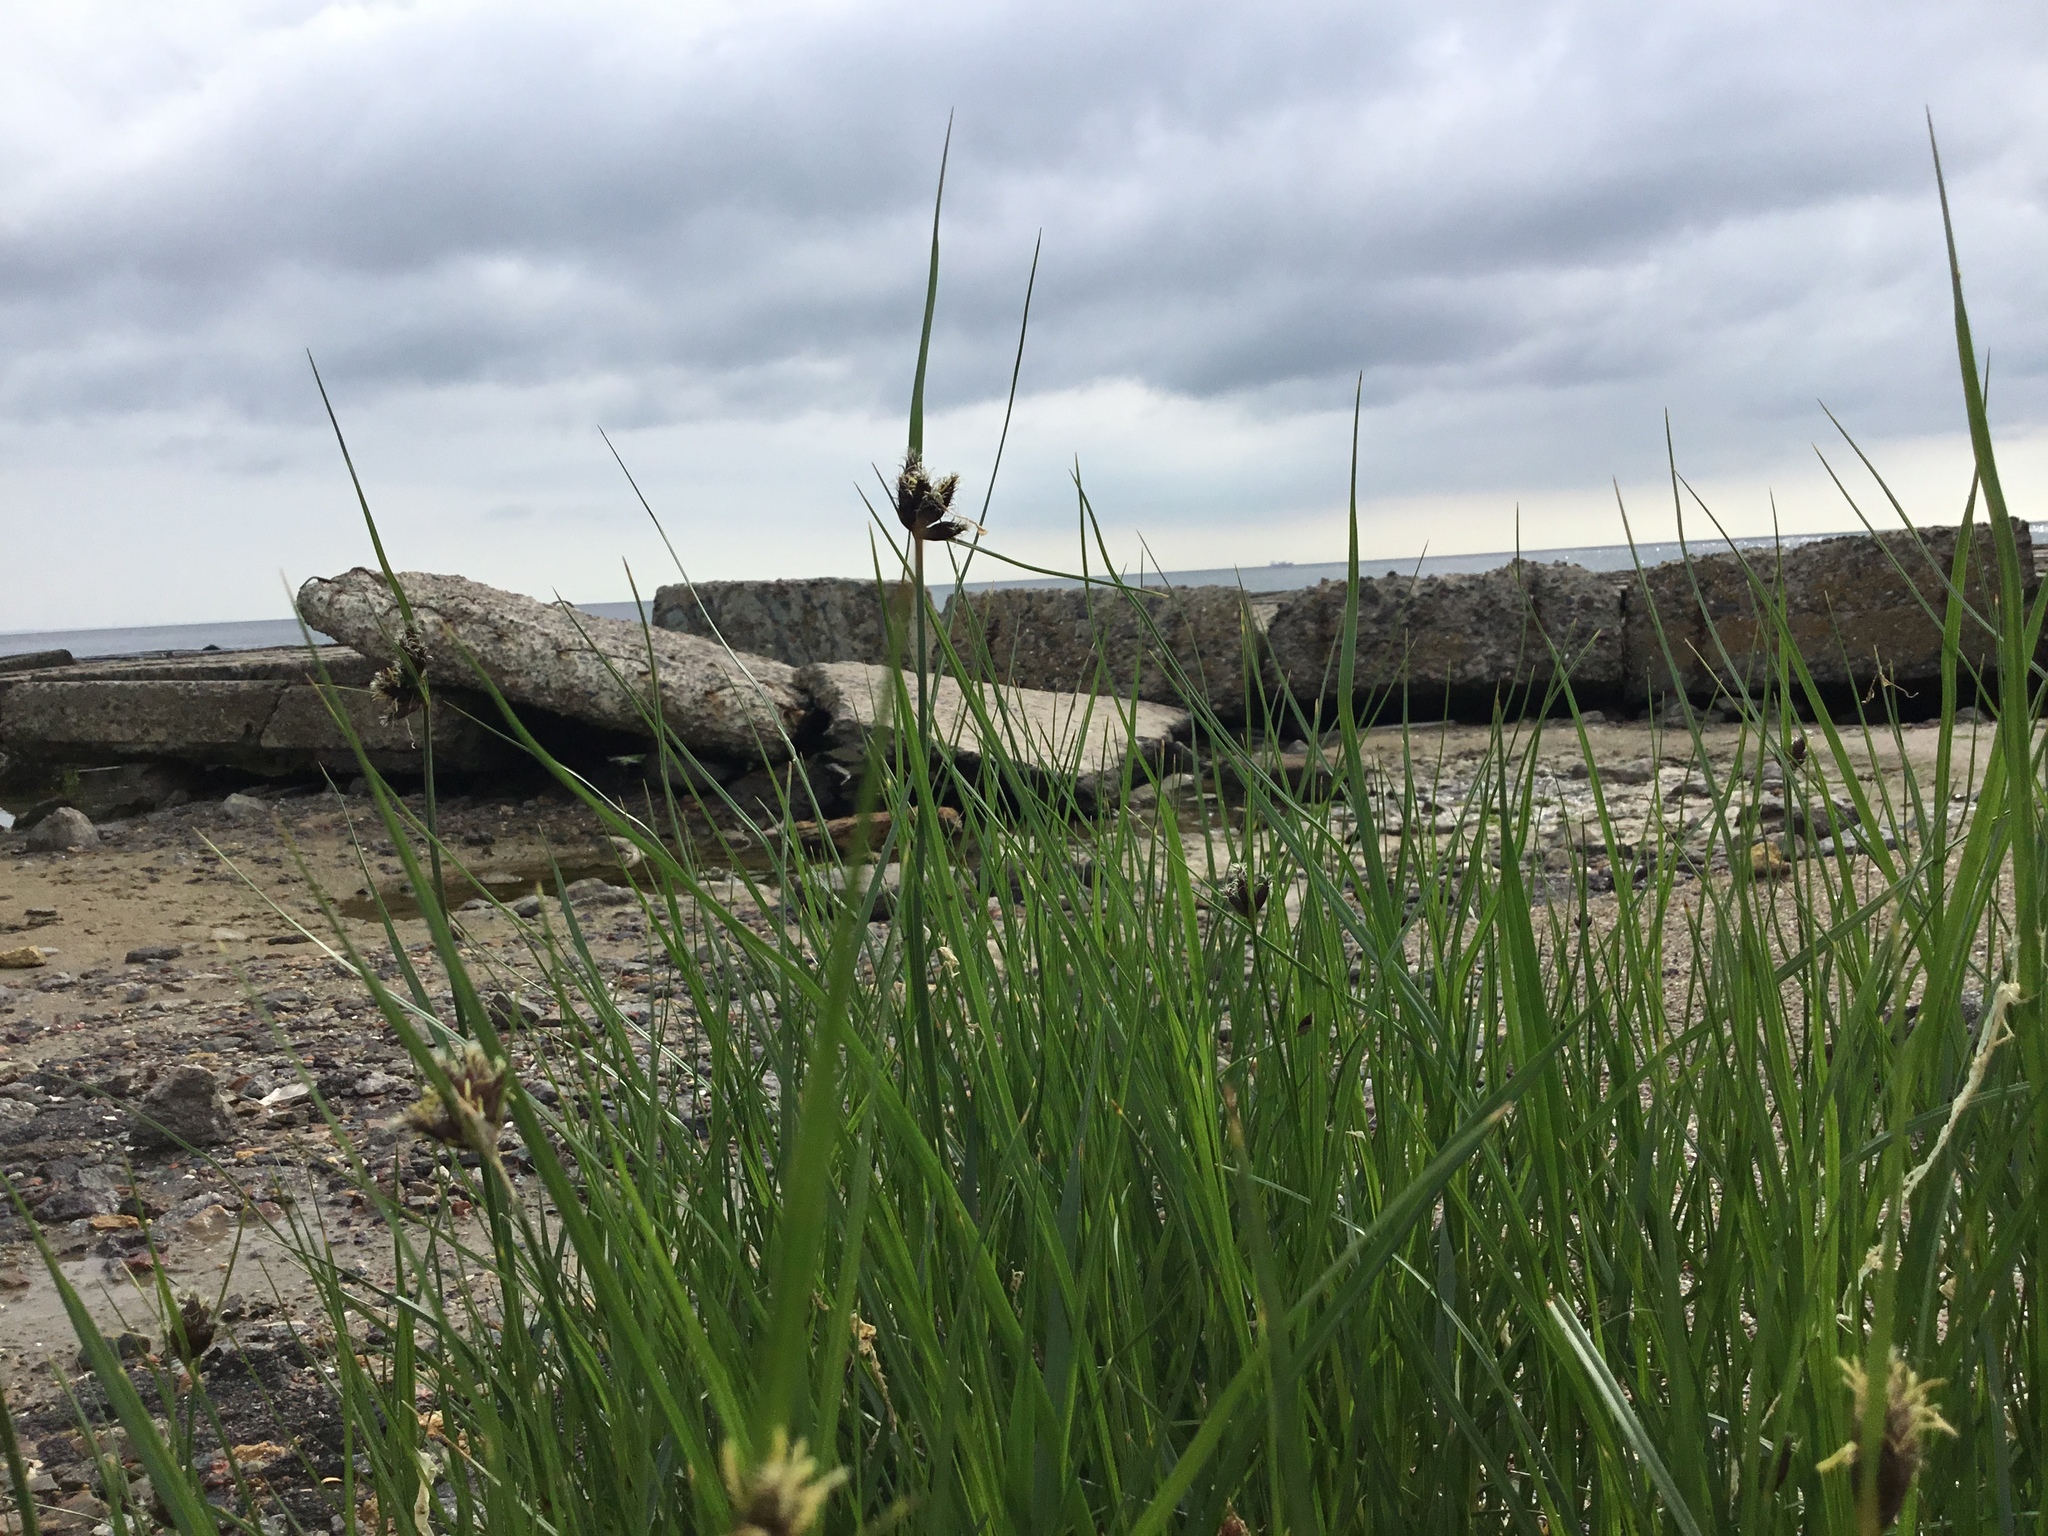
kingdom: Plantae
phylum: Tracheophyta
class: Liliopsida
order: Poales
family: Cyperaceae
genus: Bolboschoenus
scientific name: Bolboschoenus maritimus
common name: Sea club-rush
